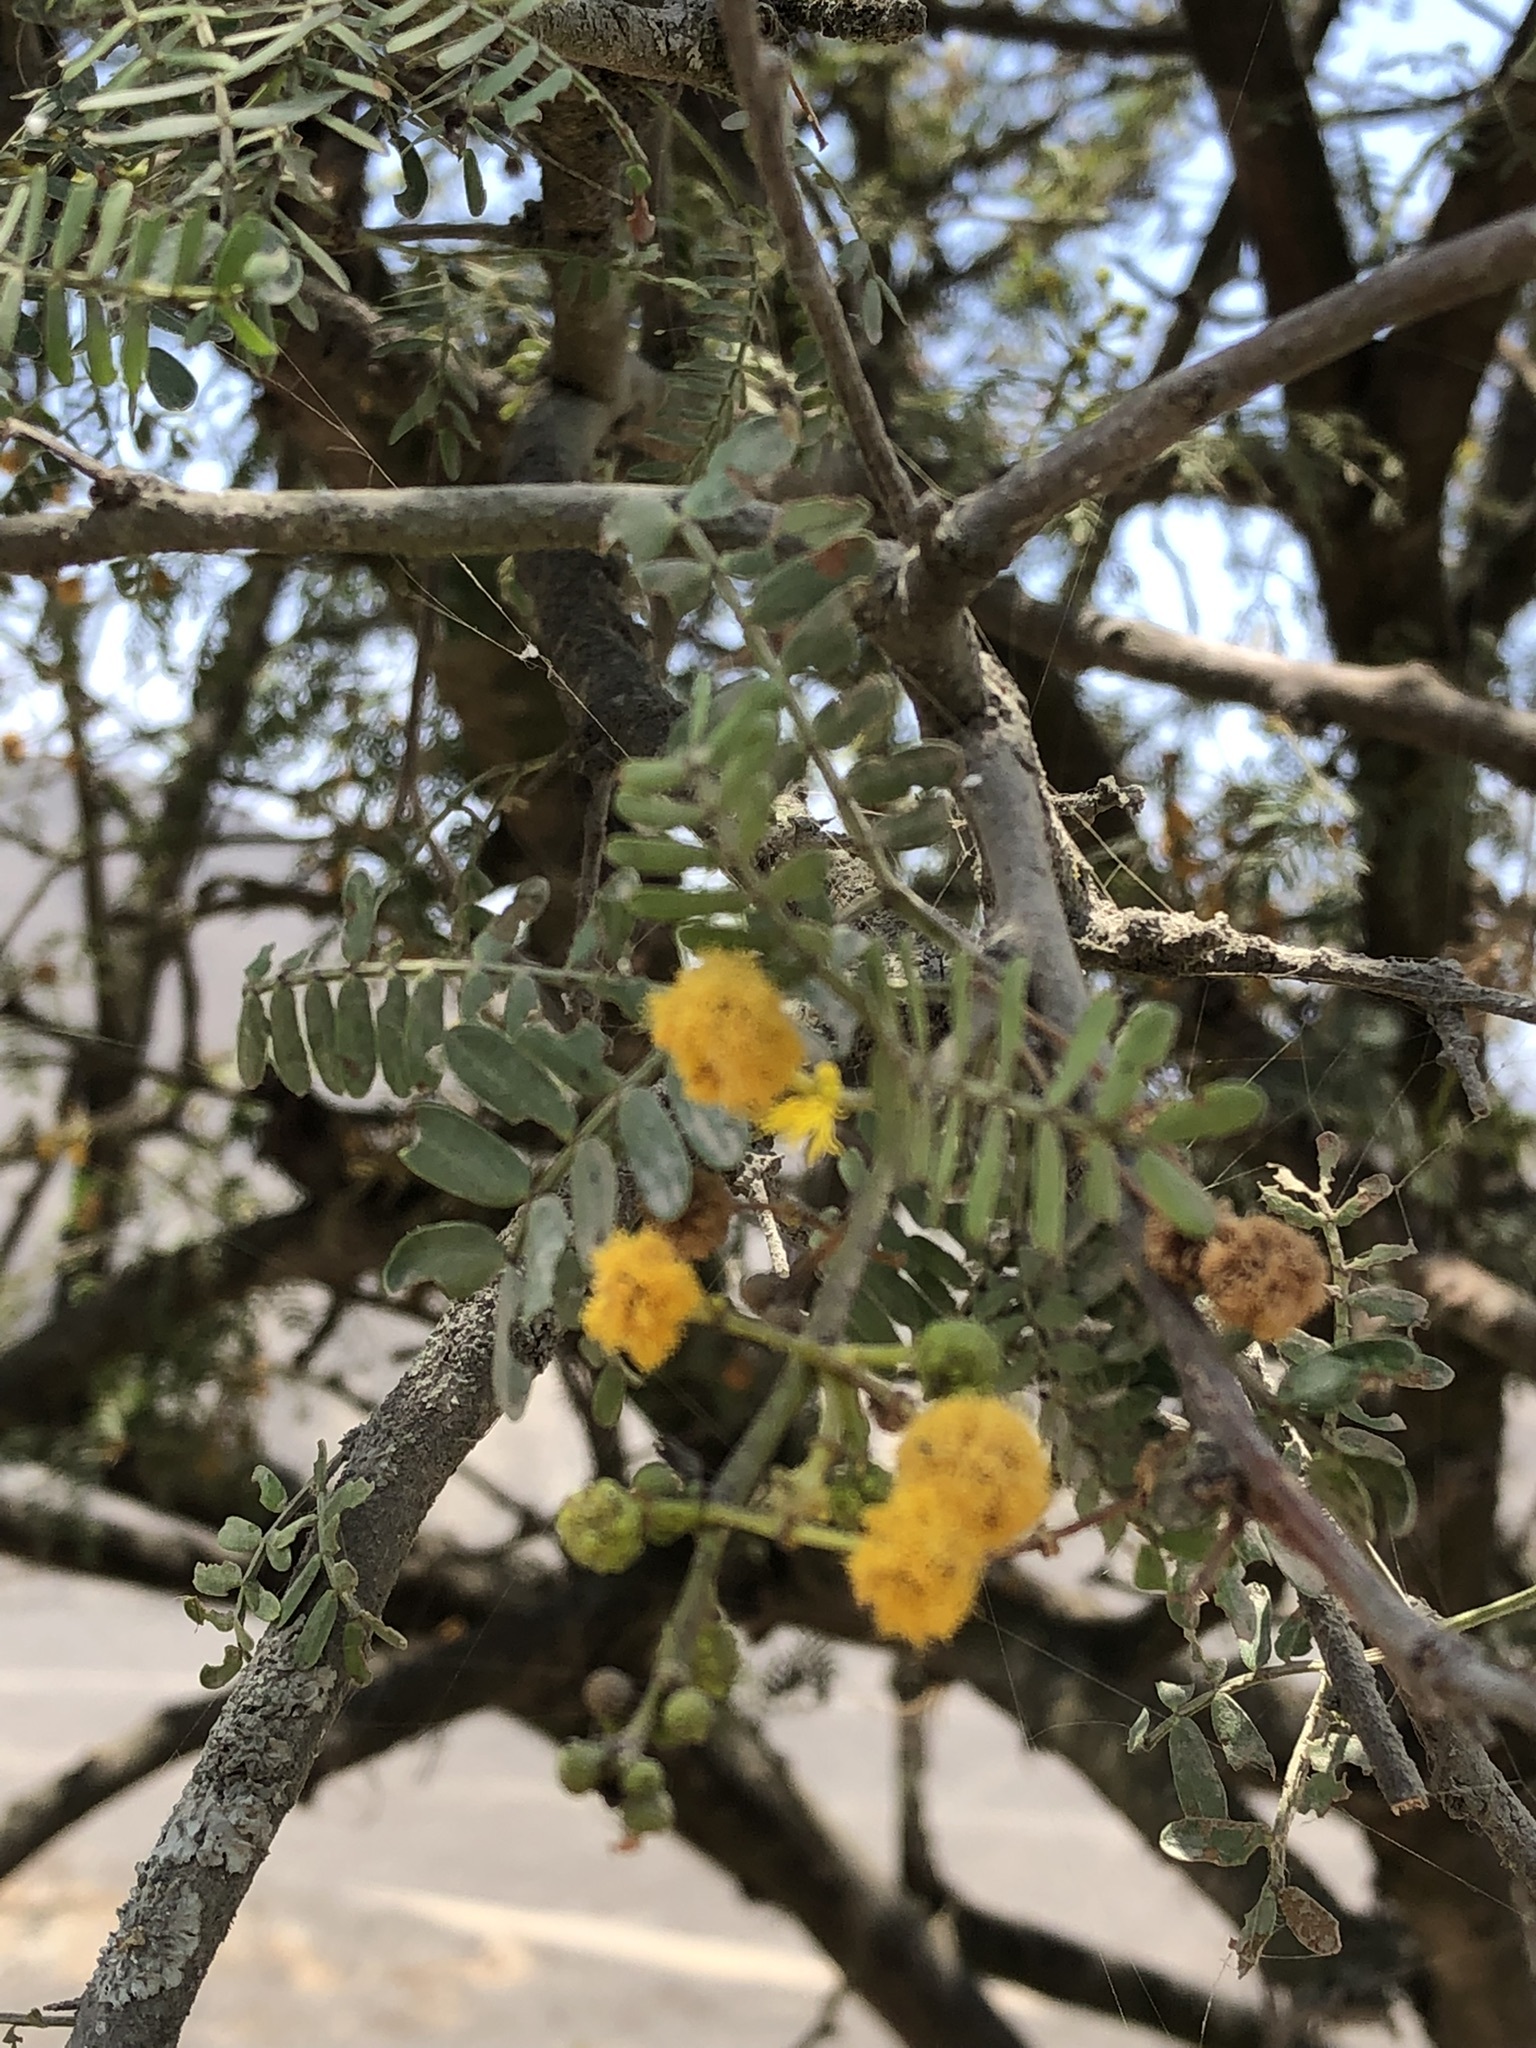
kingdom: Plantae
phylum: Tracheophyta
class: Magnoliopsida
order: Solanales
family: Solanaceae
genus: Solanum
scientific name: Solanum corneliomulleri
